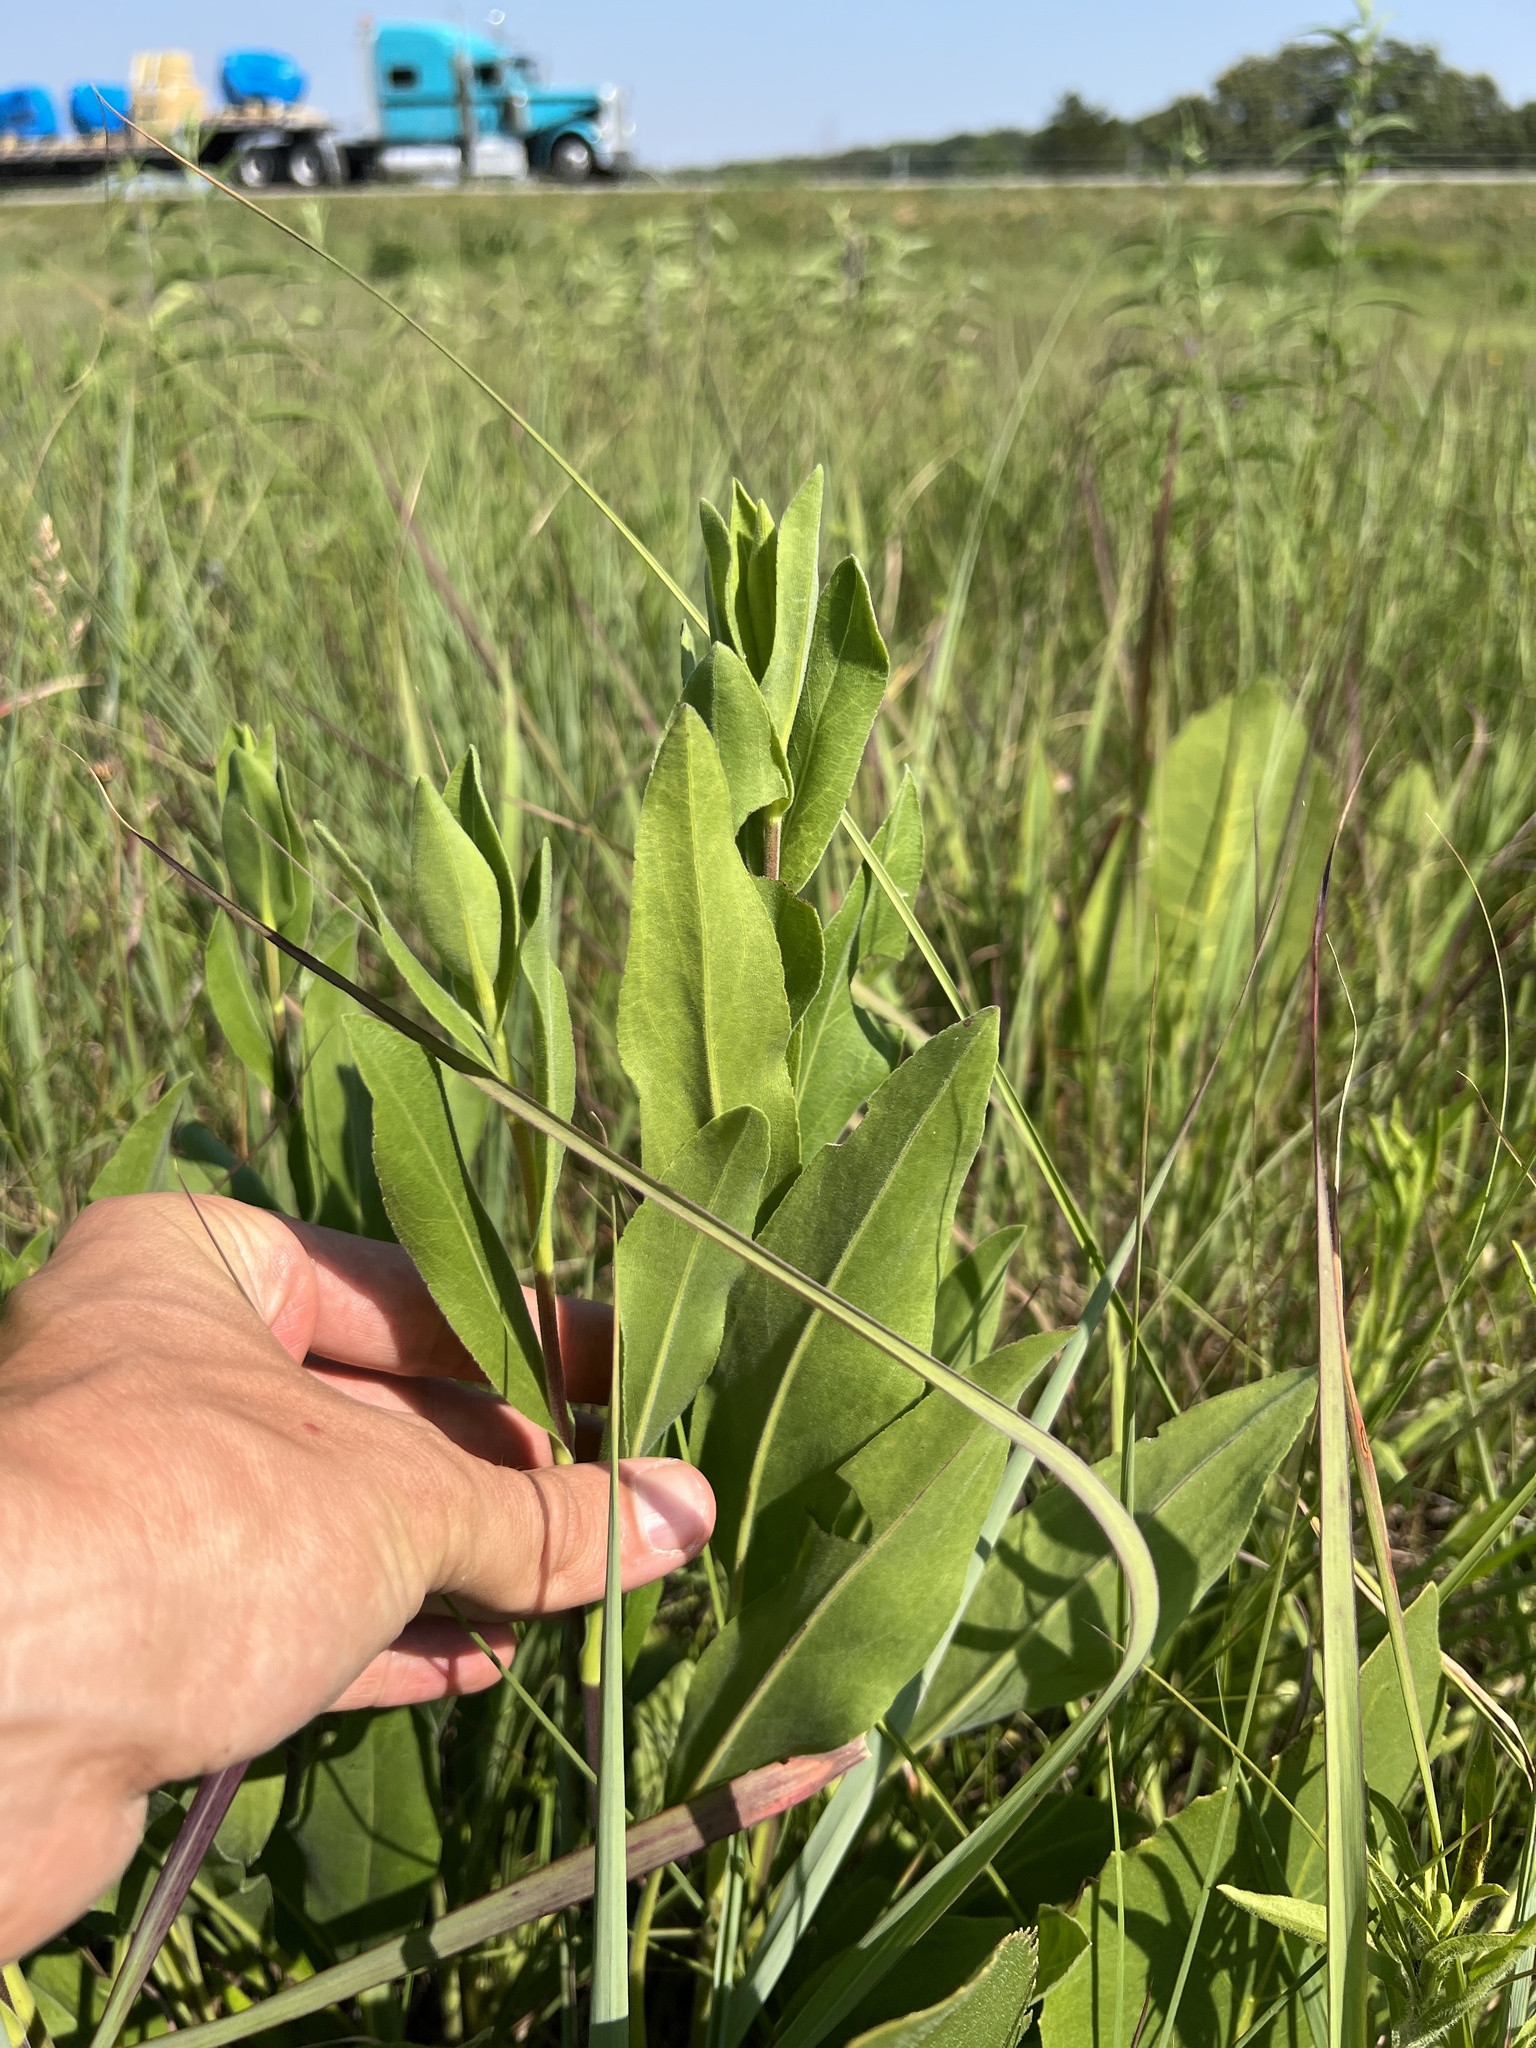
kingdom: Plantae
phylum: Tracheophyta
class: Magnoliopsida
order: Asterales
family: Asteraceae
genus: Solidago
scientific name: Solidago rigida
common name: Rigid goldenrod
